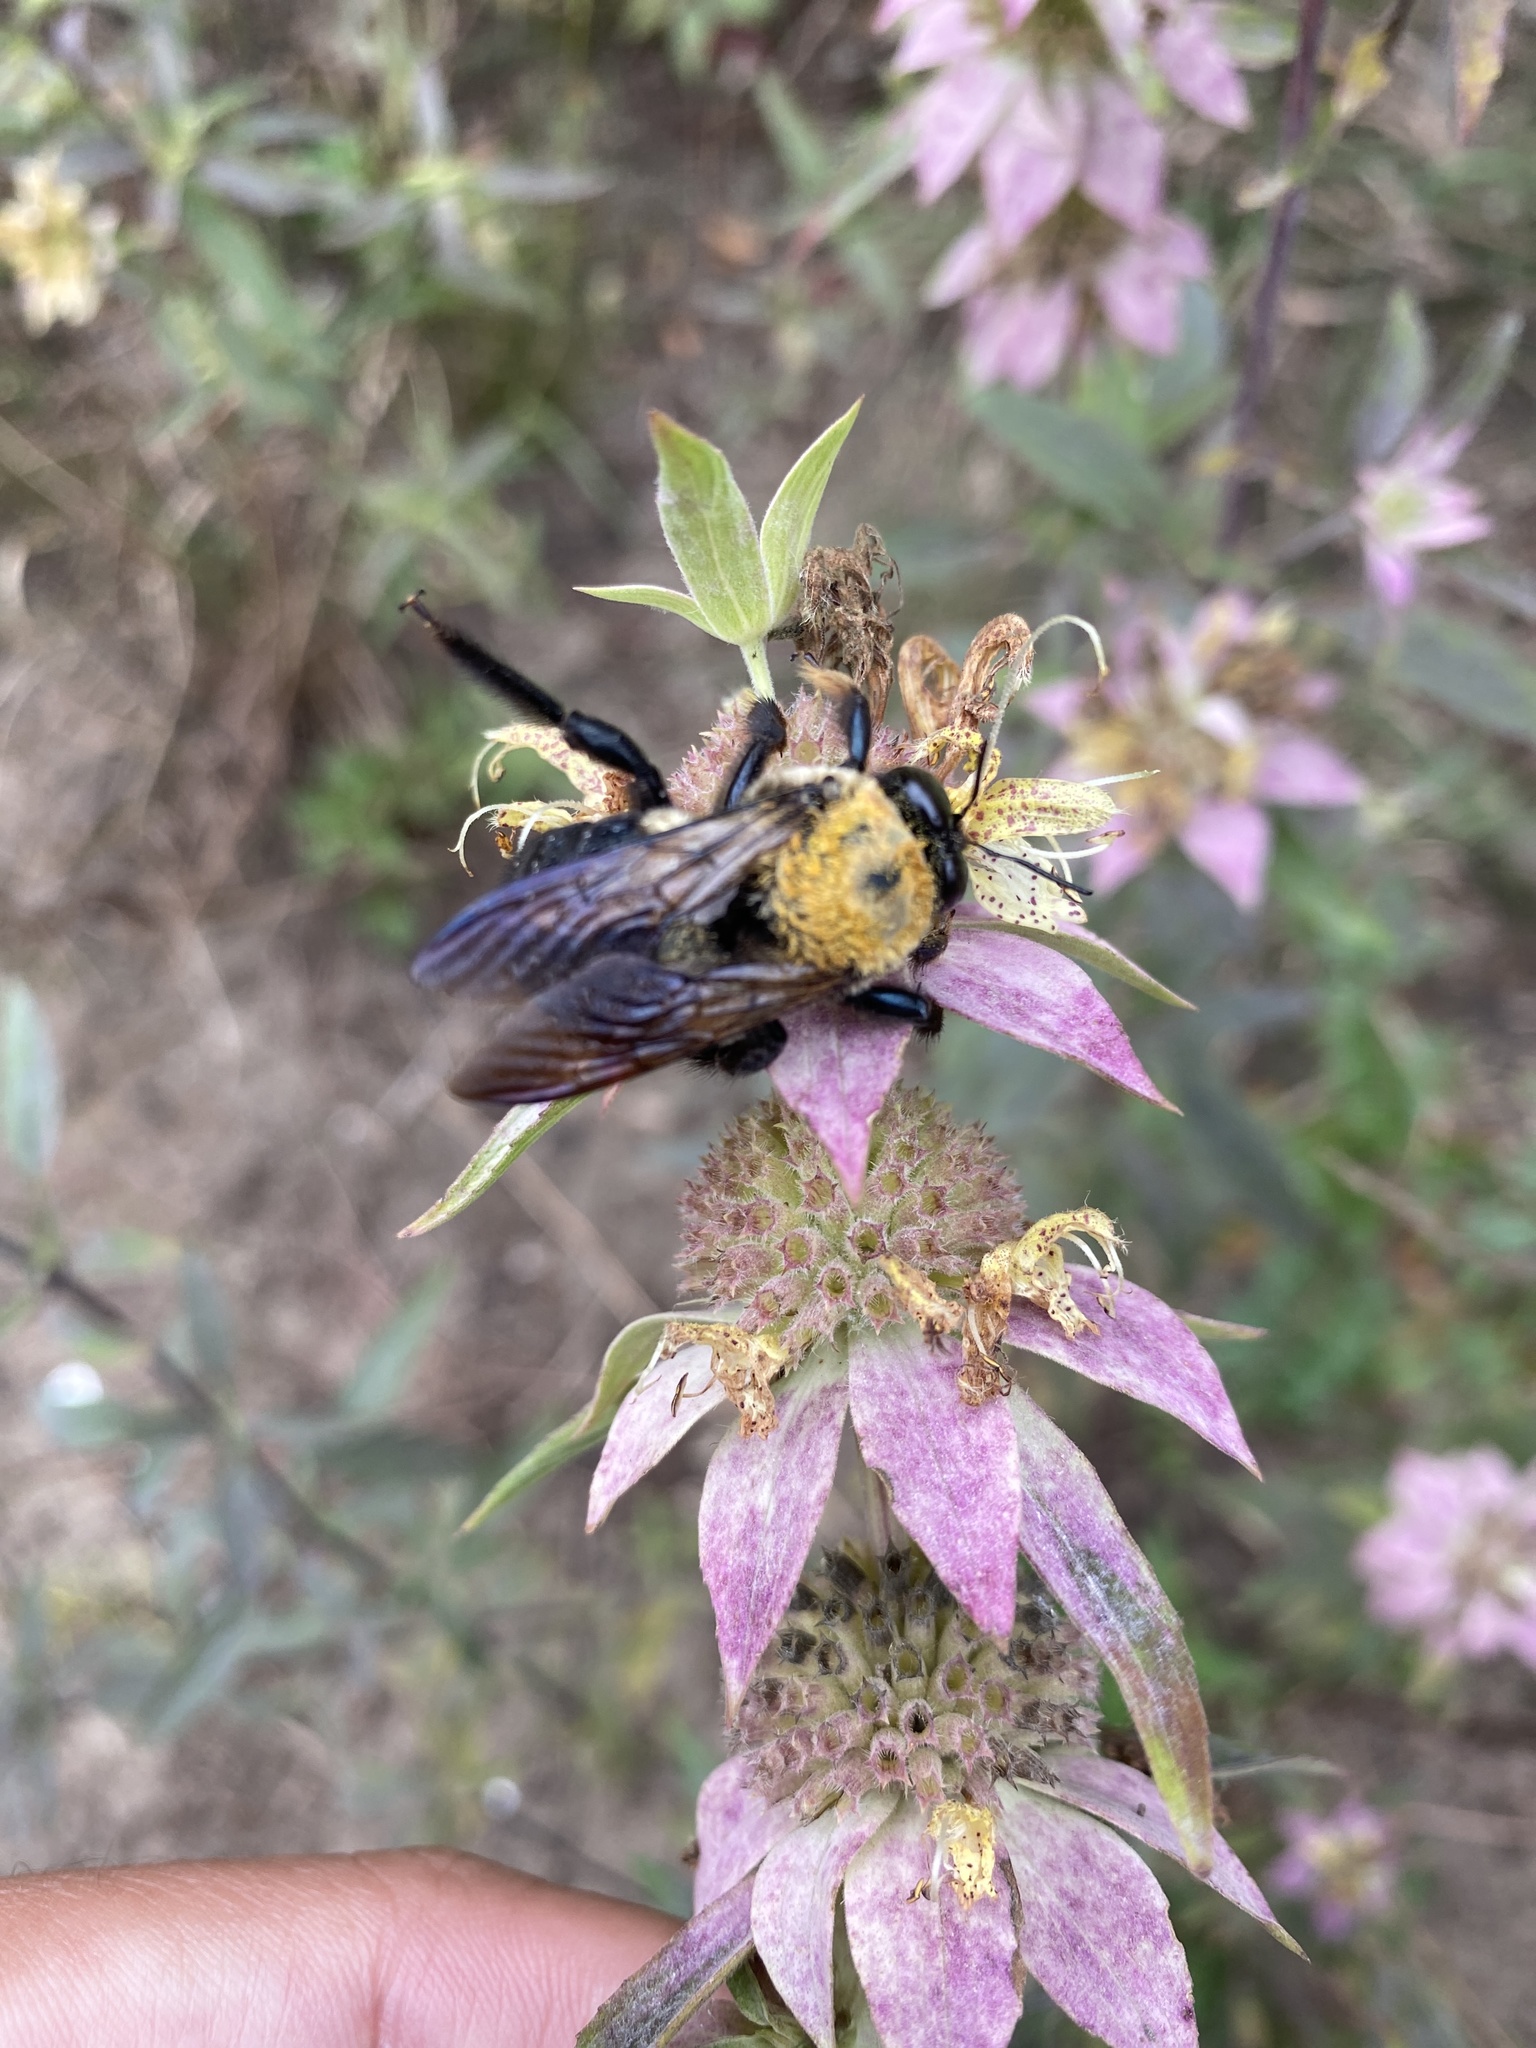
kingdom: Animalia
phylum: Arthropoda
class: Insecta
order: Hymenoptera
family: Apidae
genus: Xylocopa
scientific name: Xylocopa virginica
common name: Carpenter bee
